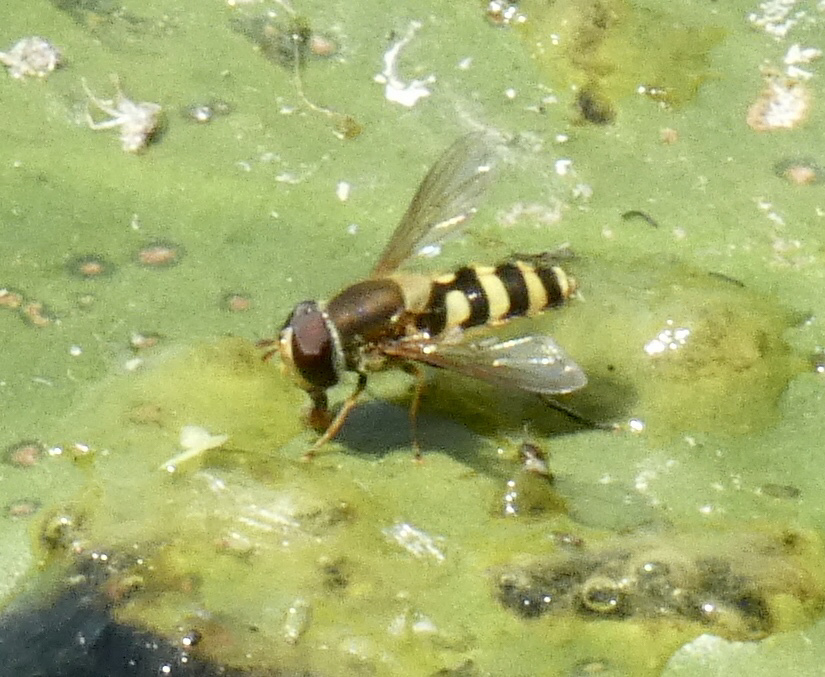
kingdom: Animalia
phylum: Arthropoda
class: Insecta
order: Diptera
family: Syrphidae
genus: Syrphus
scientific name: Syrphus
